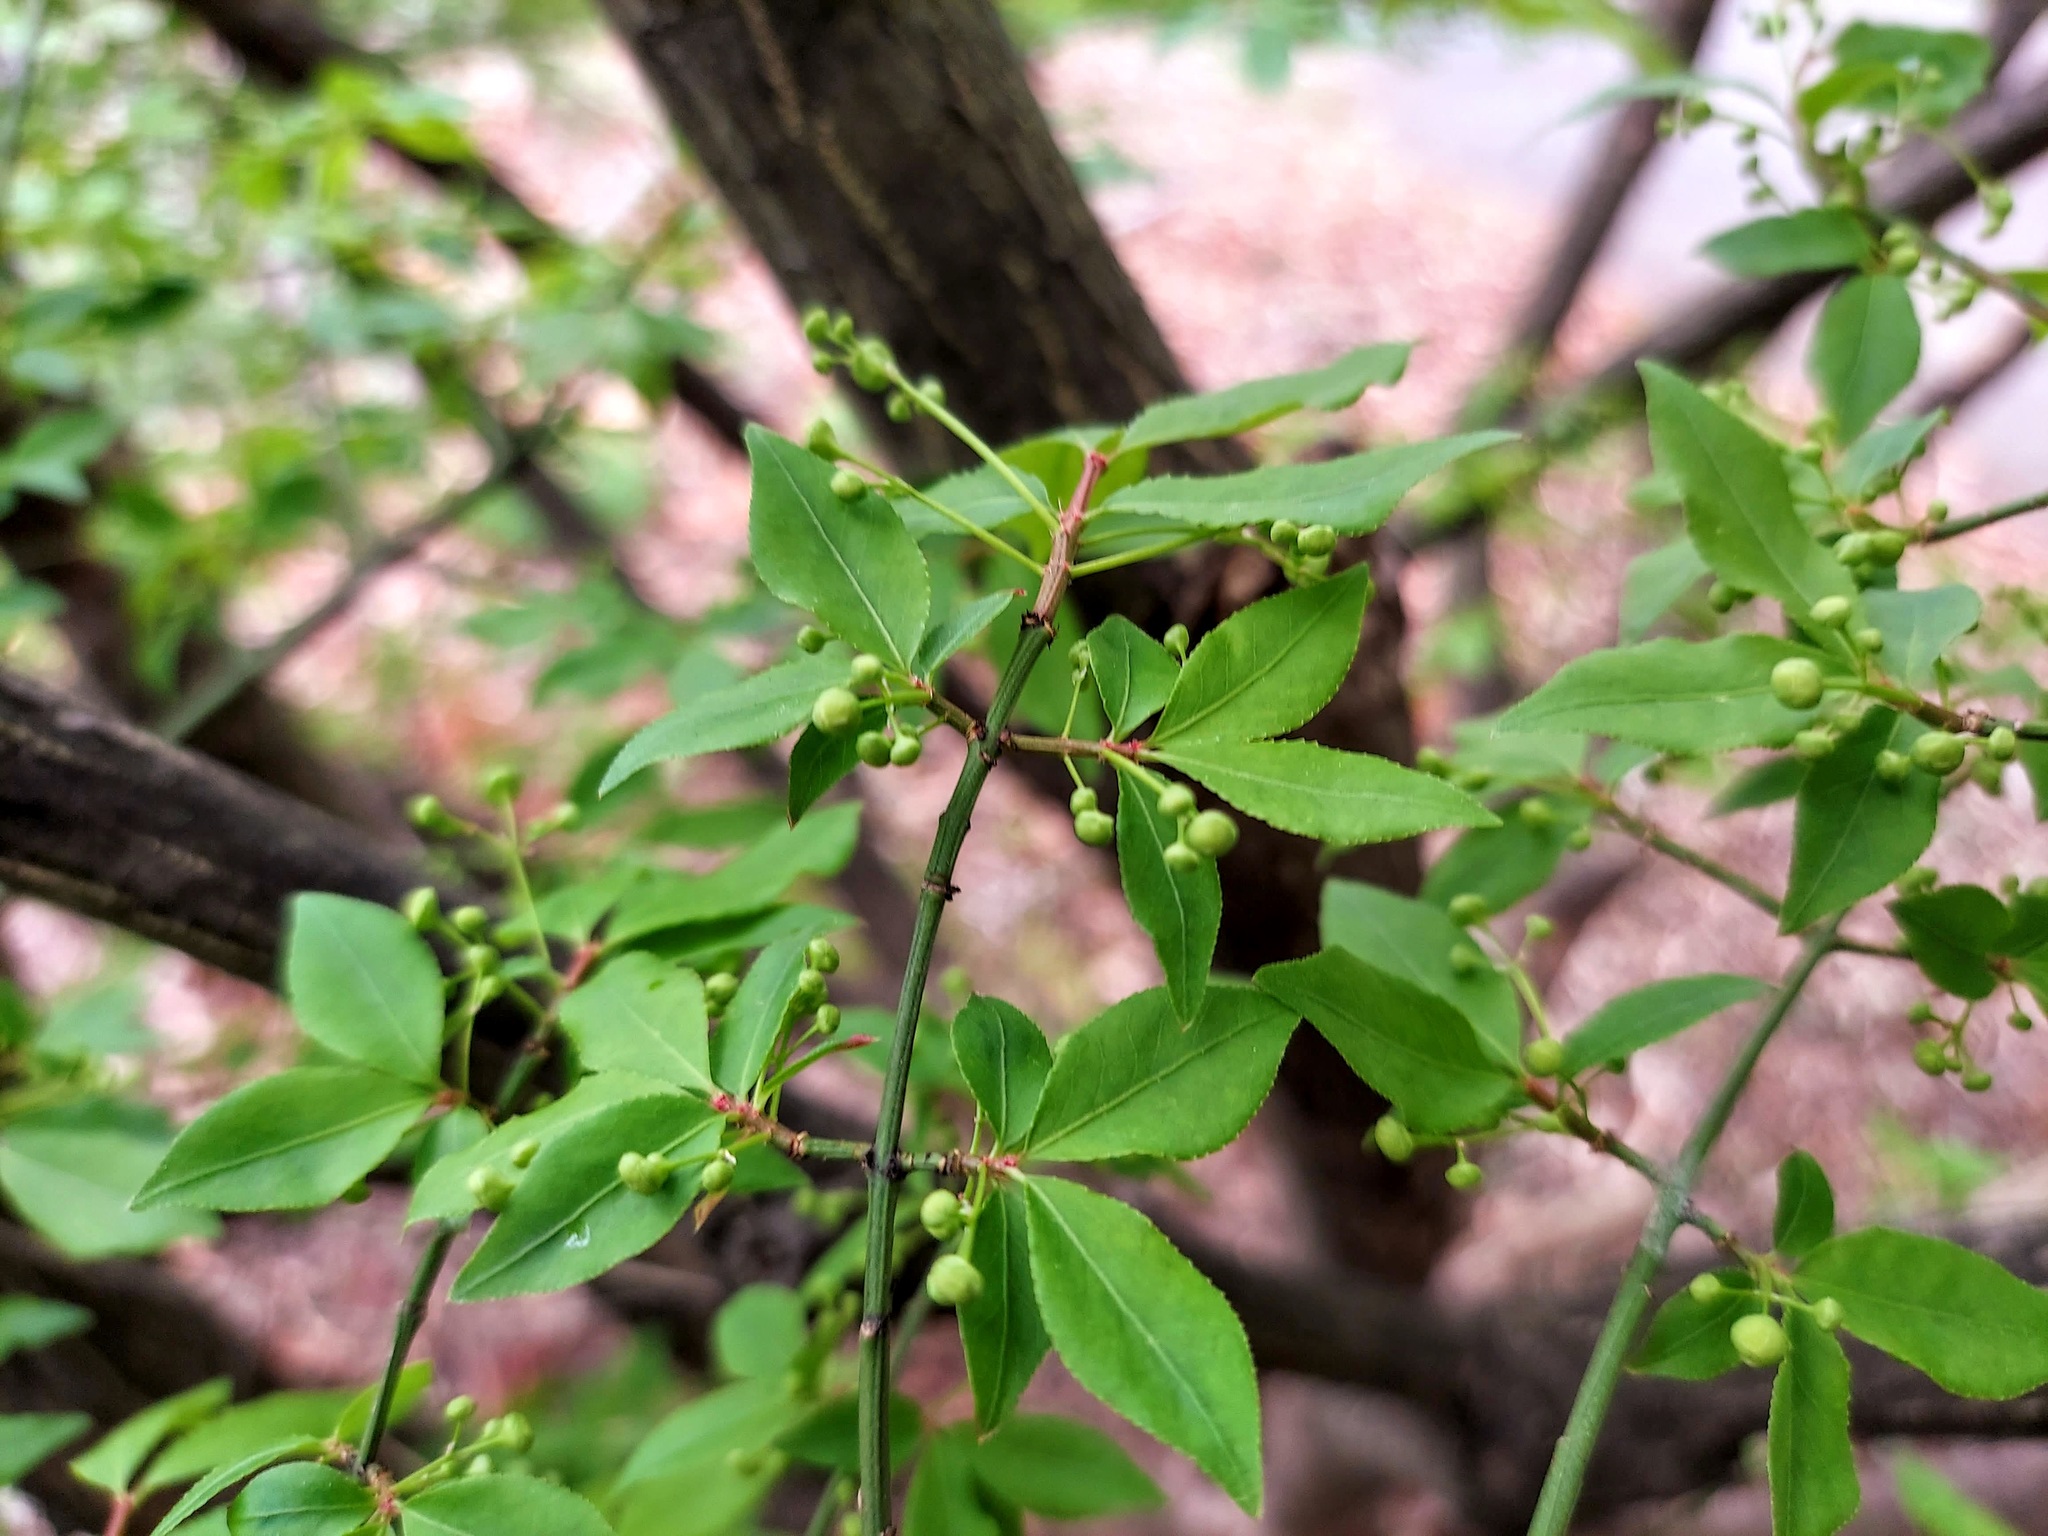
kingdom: Plantae
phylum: Tracheophyta
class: Magnoliopsida
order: Celastrales
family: Celastraceae
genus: Euonymus
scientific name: Euonymus alatus
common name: Winged euonymus
